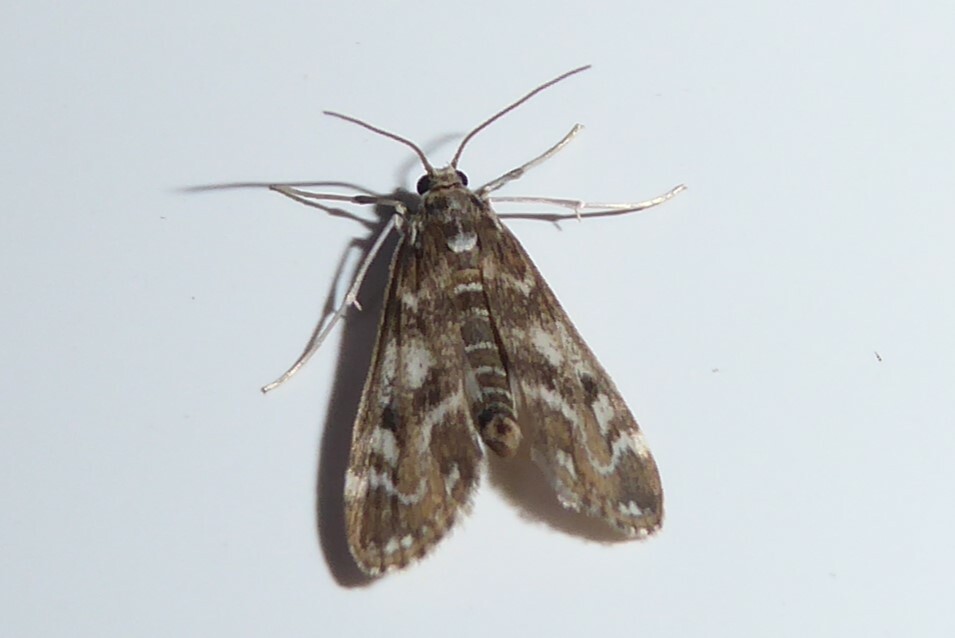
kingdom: Animalia
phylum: Arthropoda
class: Insecta
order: Lepidoptera
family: Crambidae
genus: Hygraula
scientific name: Hygraula nitens
